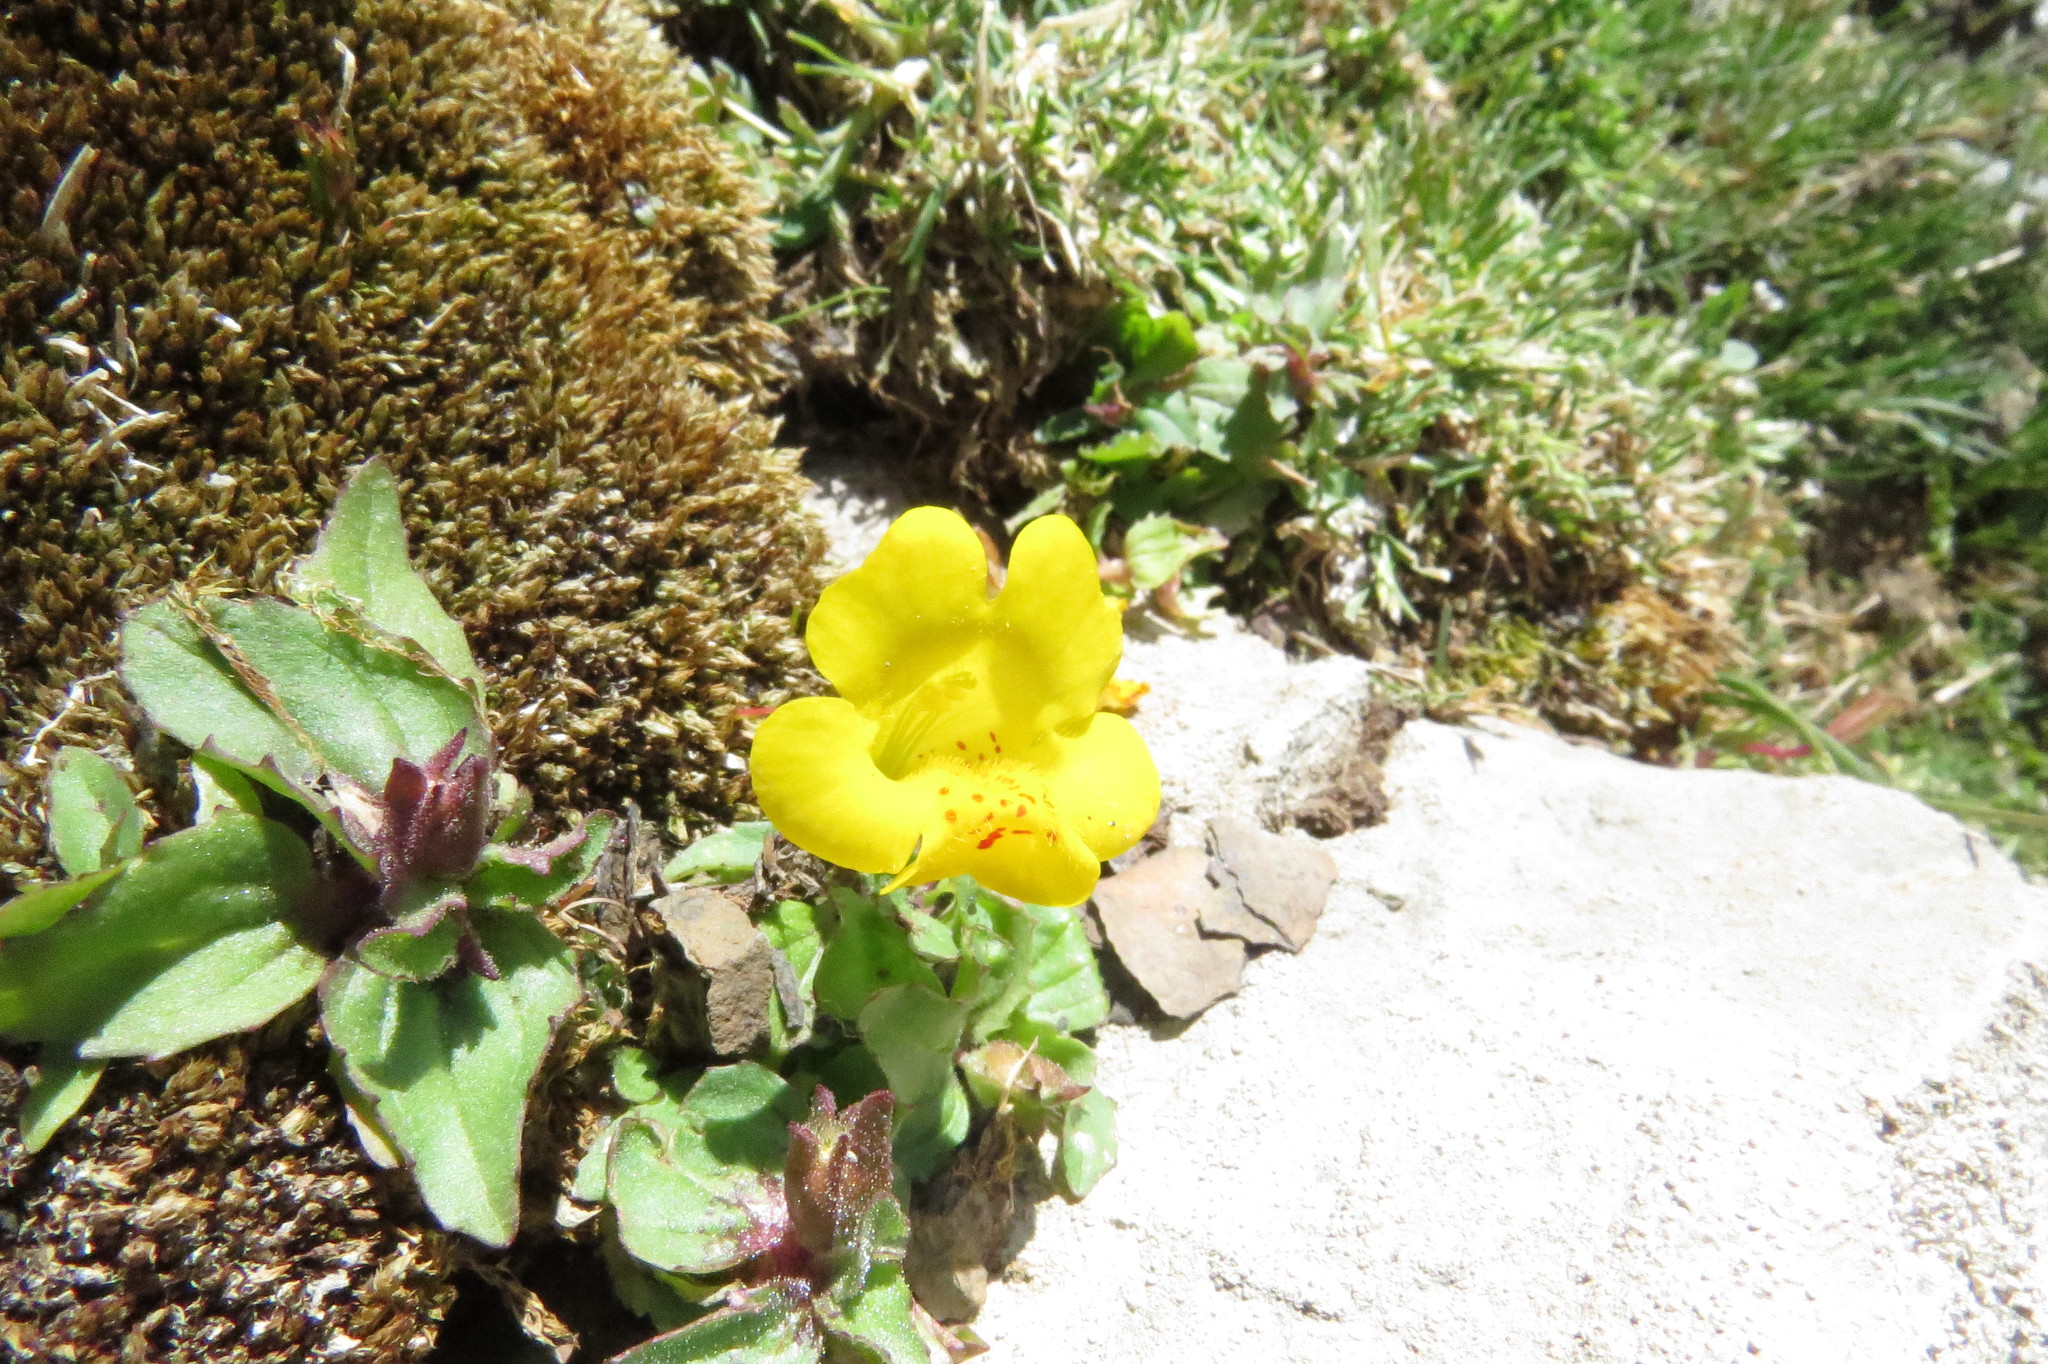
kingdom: Plantae
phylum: Tracheophyta
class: Magnoliopsida
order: Lamiales
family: Phrymaceae
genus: Erythranthe
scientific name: Erythranthe lutea
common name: Yellow monkey-flower
